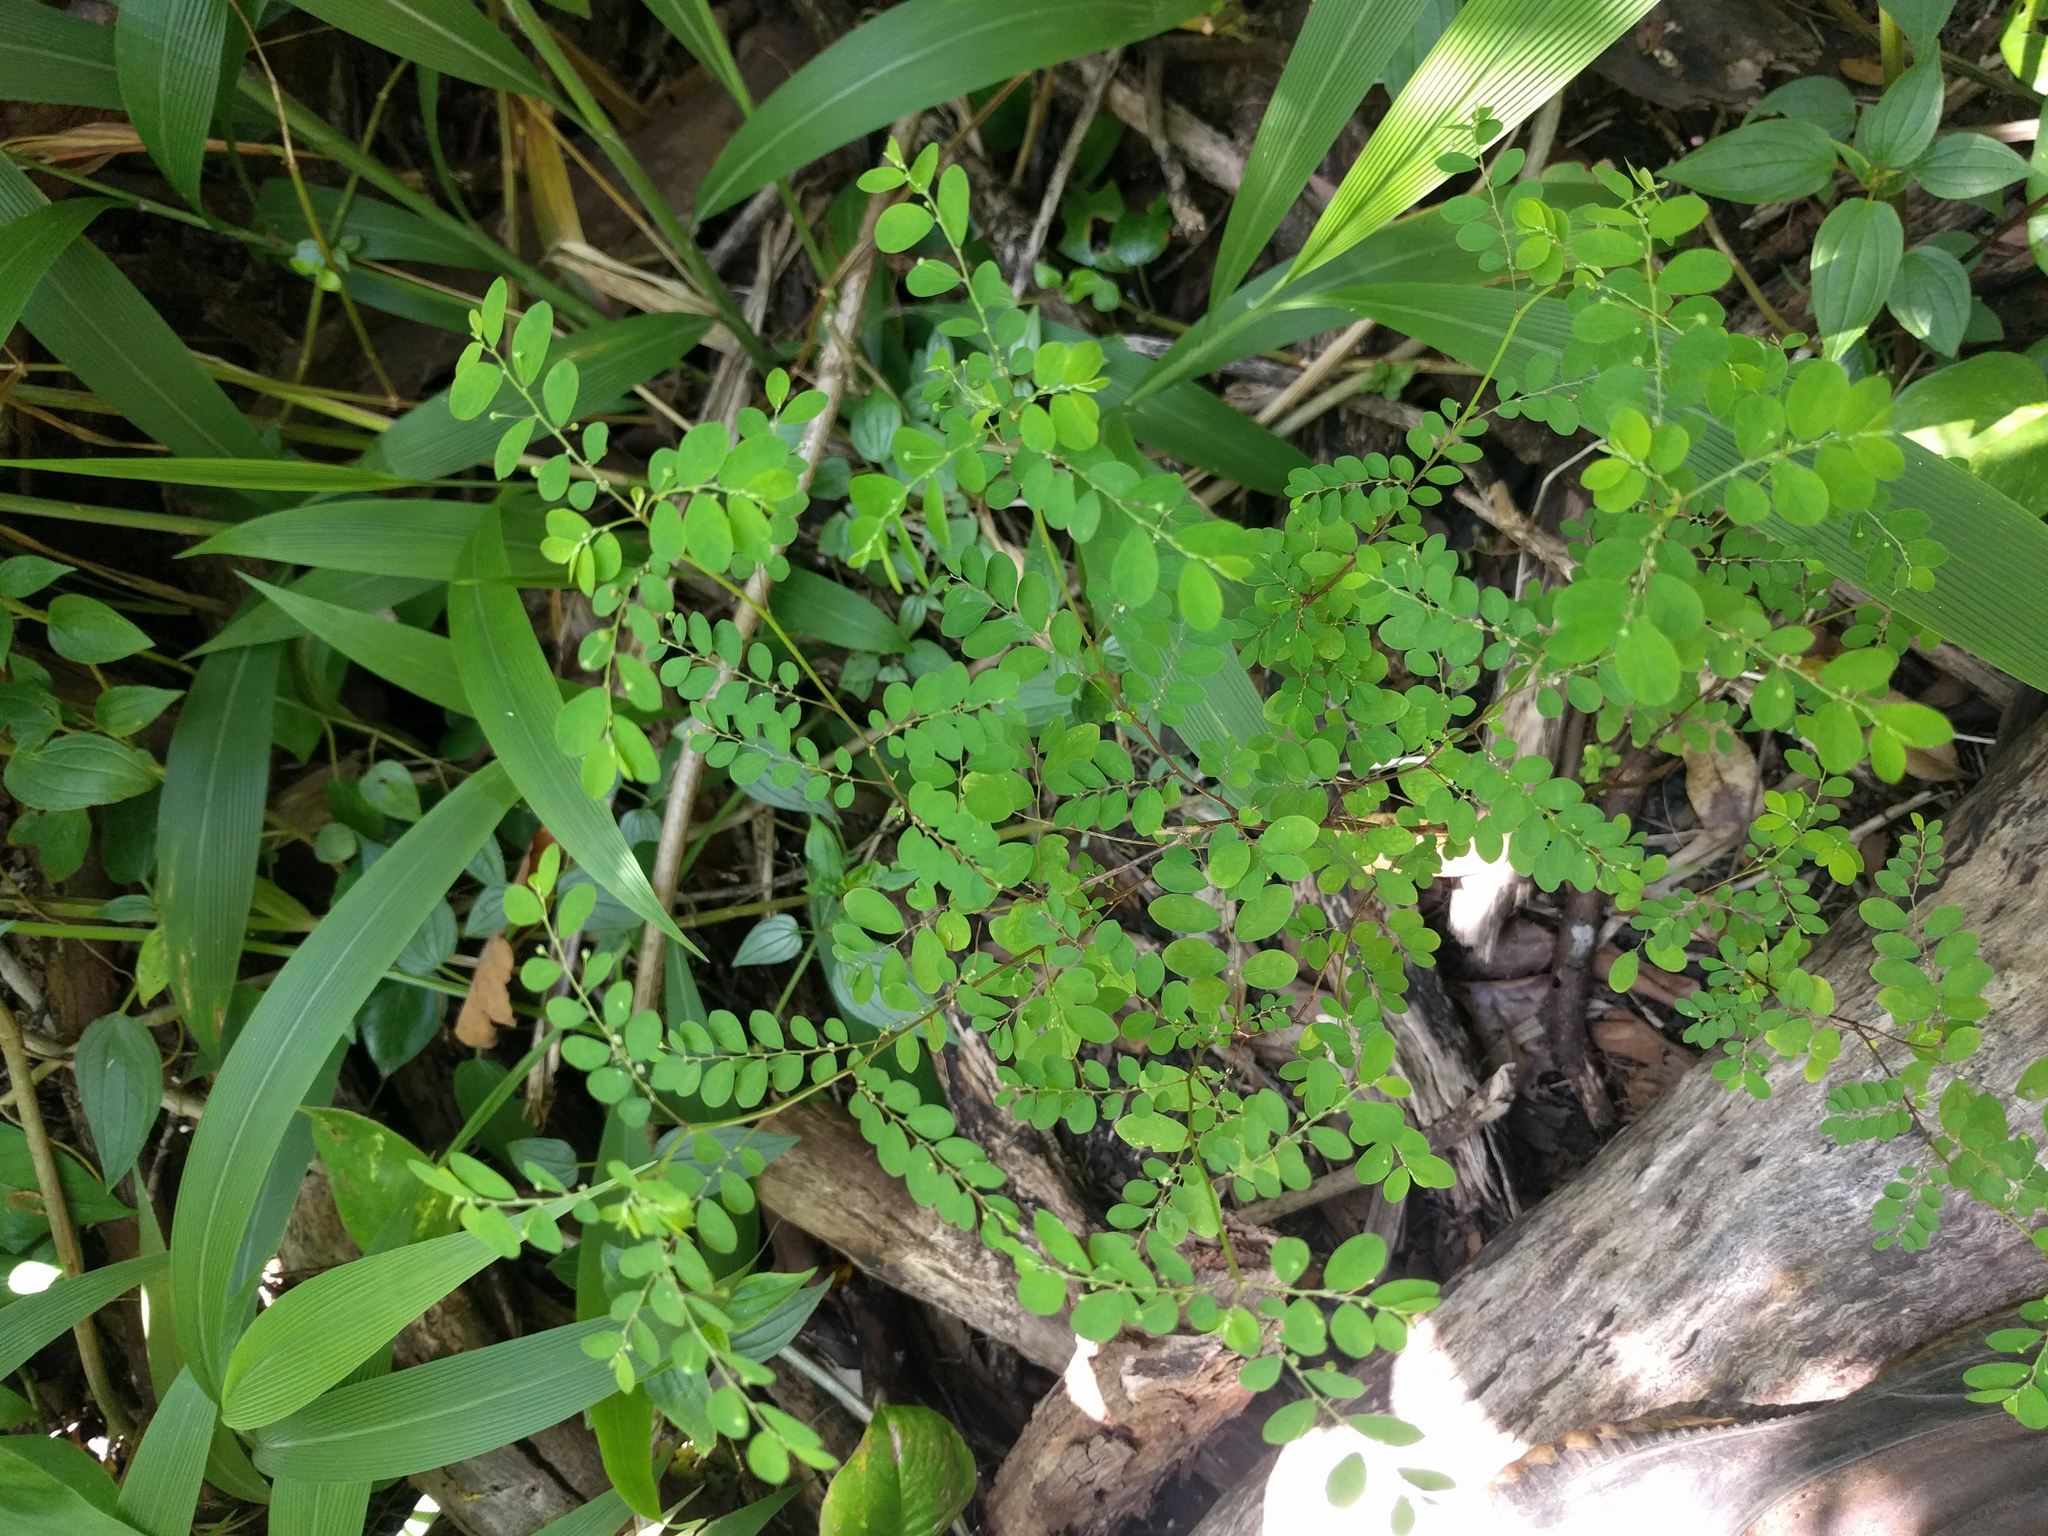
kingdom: Plantae
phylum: Tracheophyta
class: Magnoliopsida
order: Malpighiales
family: Phyllanthaceae
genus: Phyllanthus
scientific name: Phyllanthus tenellus
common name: Mascarene island leaf-flower
